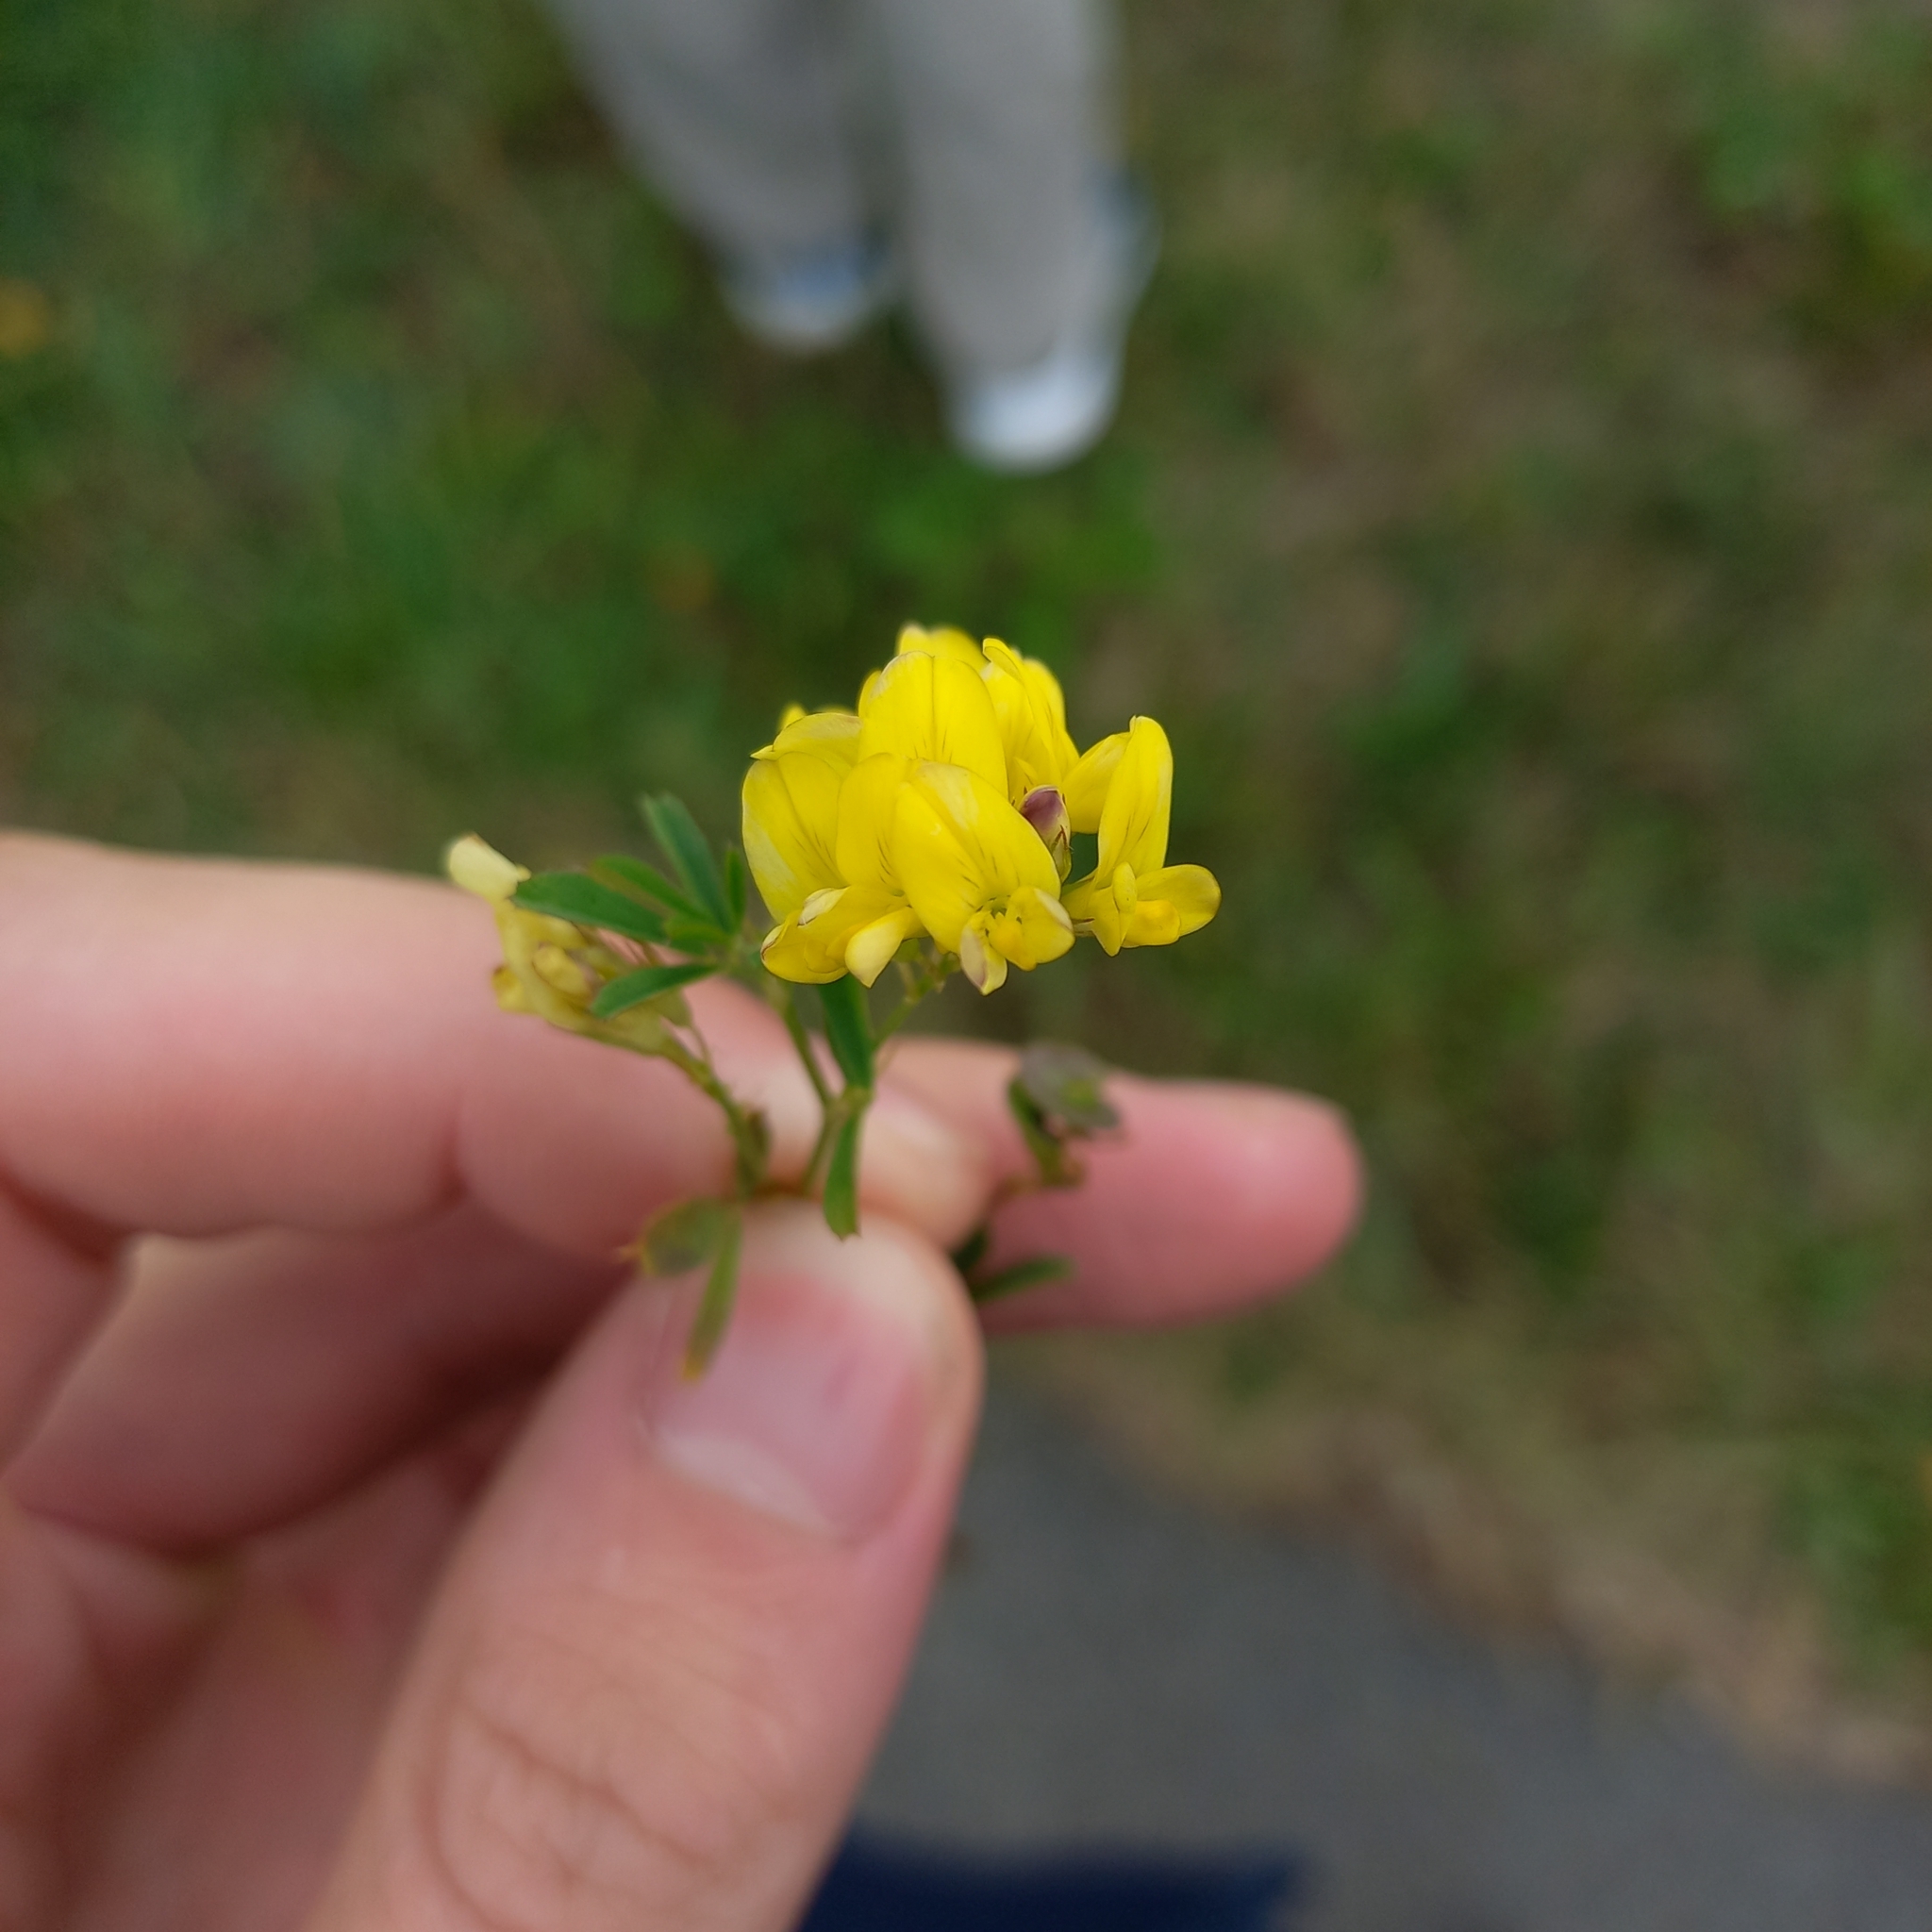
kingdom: Plantae
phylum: Tracheophyta
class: Magnoliopsida
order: Fabales
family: Fabaceae
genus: Medicago
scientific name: Medicago varia
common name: Sand lucerne
